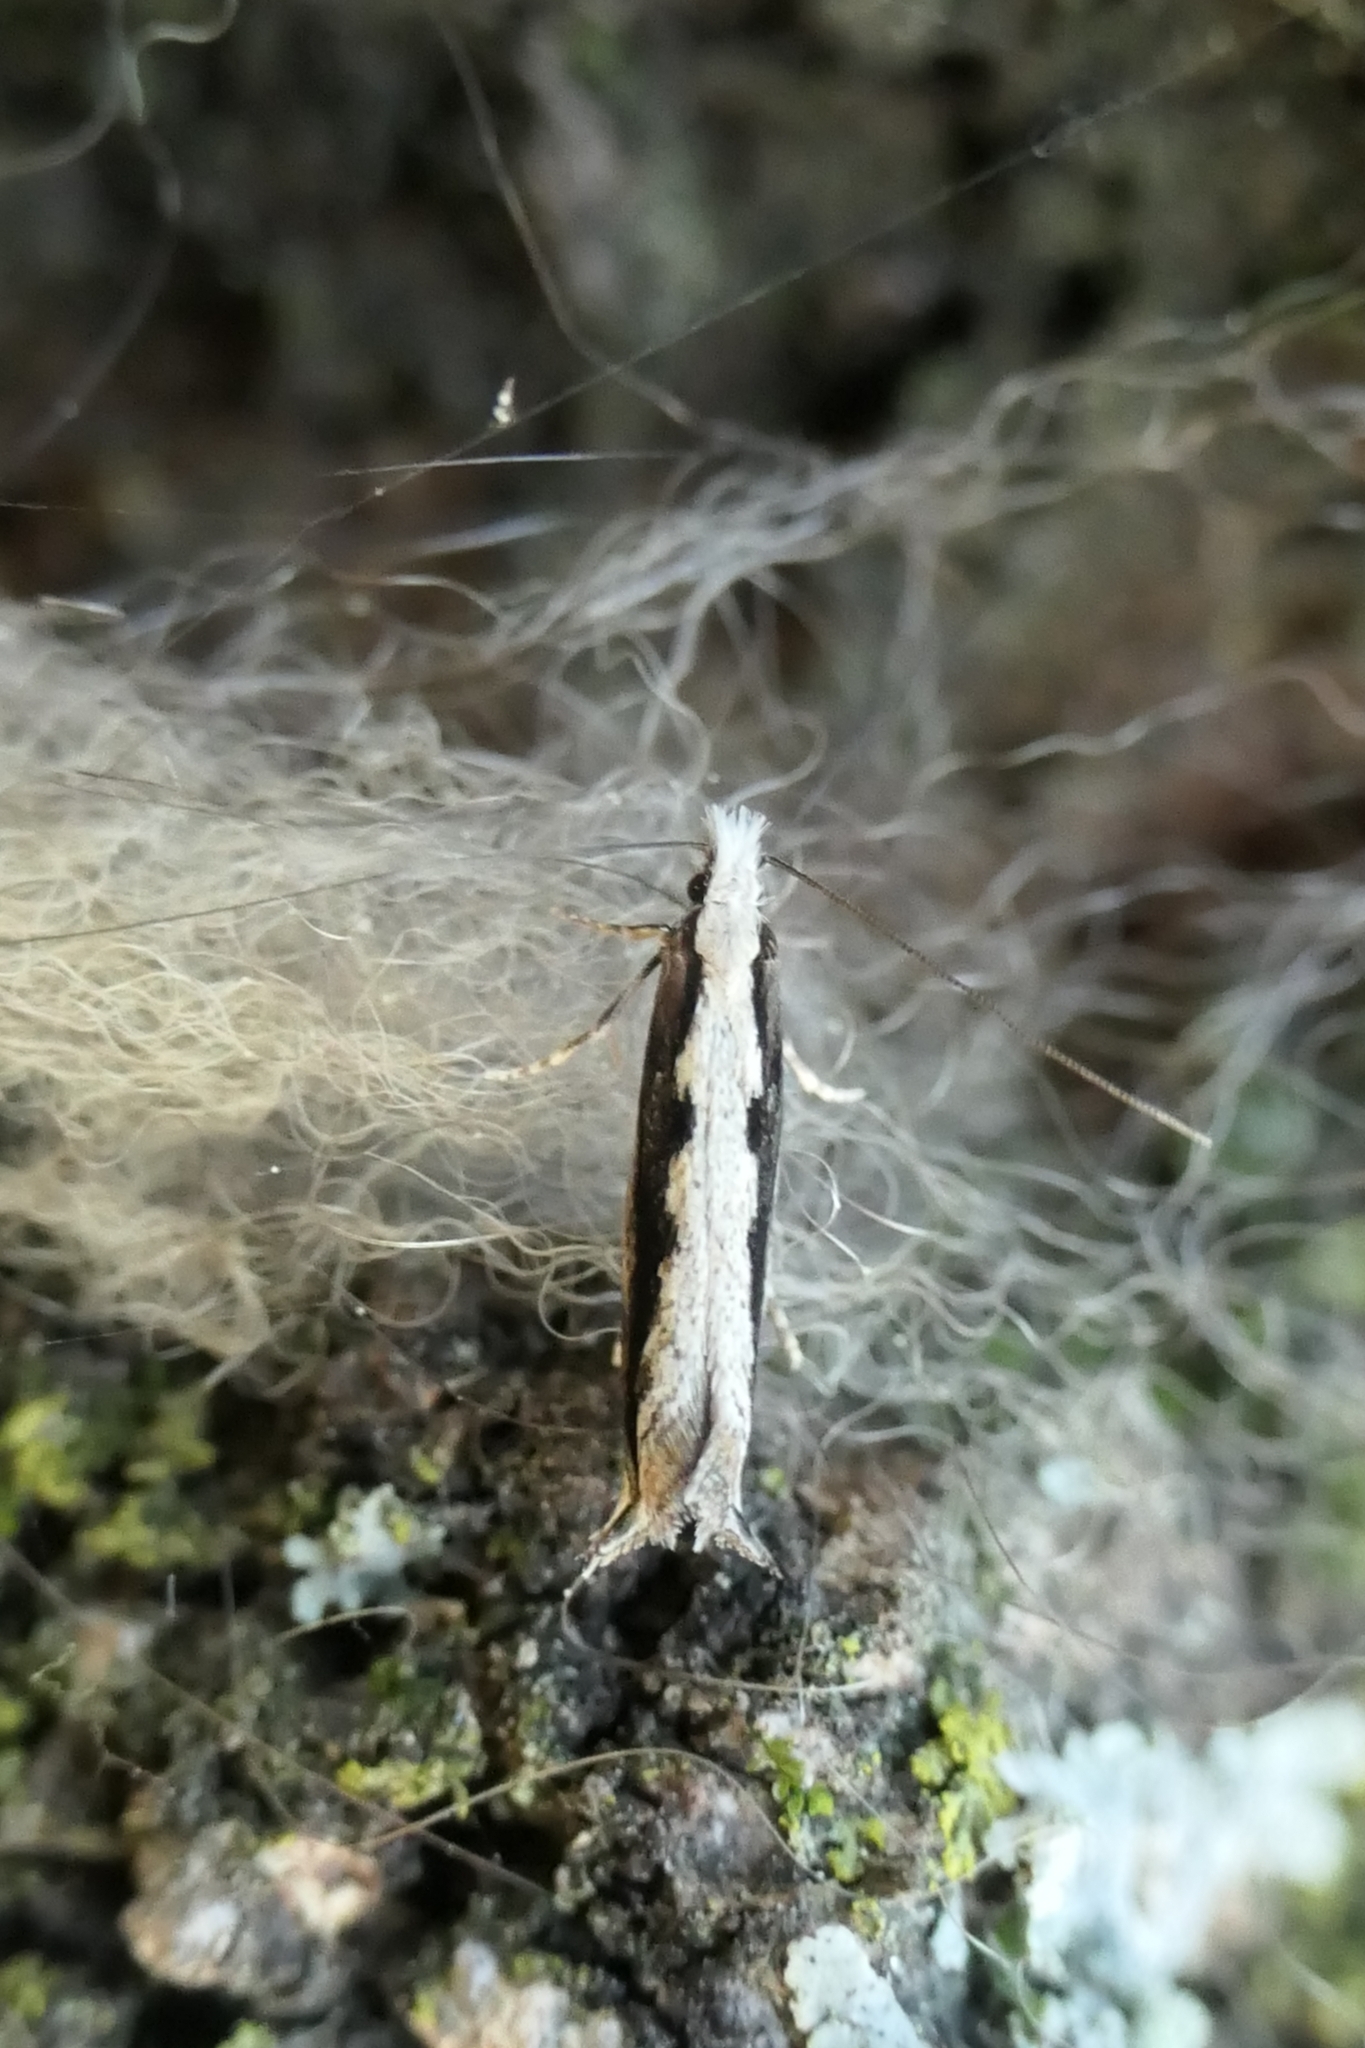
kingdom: Animalia
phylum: Arthropoda
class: Insecta
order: Lepidoptera
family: Tineidae
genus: Erechthias
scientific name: Erechthias fulguritella
